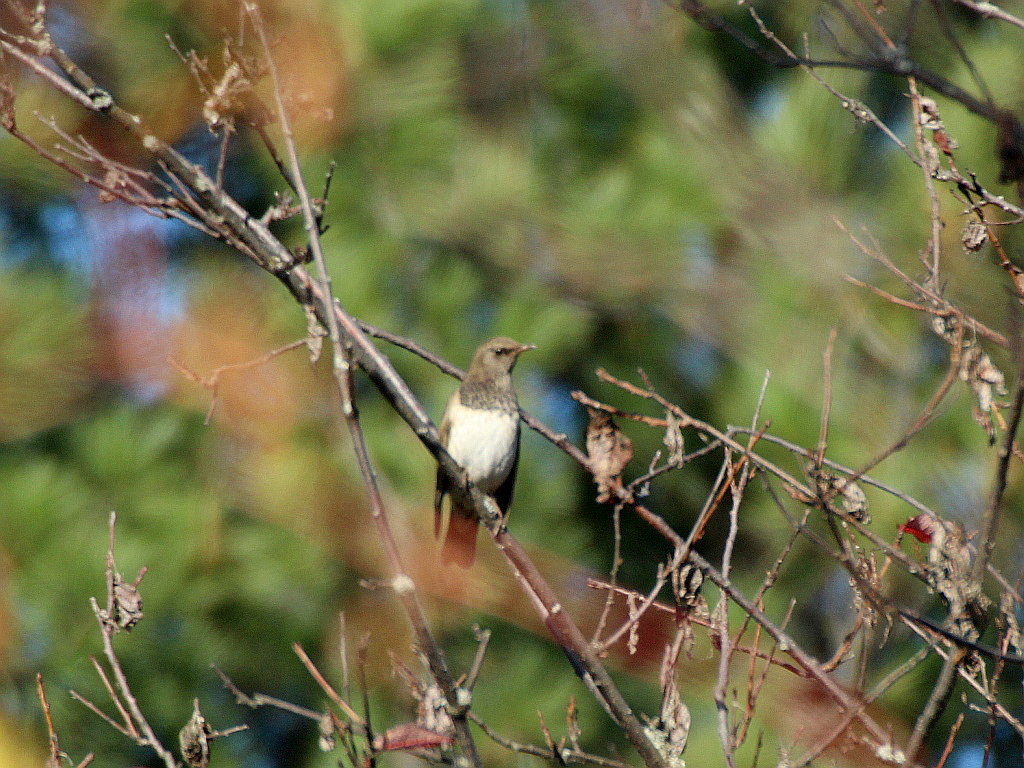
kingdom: Animalia
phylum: Chordata
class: Aves
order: Passeriformes
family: Turdidae
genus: Turdus
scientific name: Turdus atrogularis
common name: Black-throated thrush
